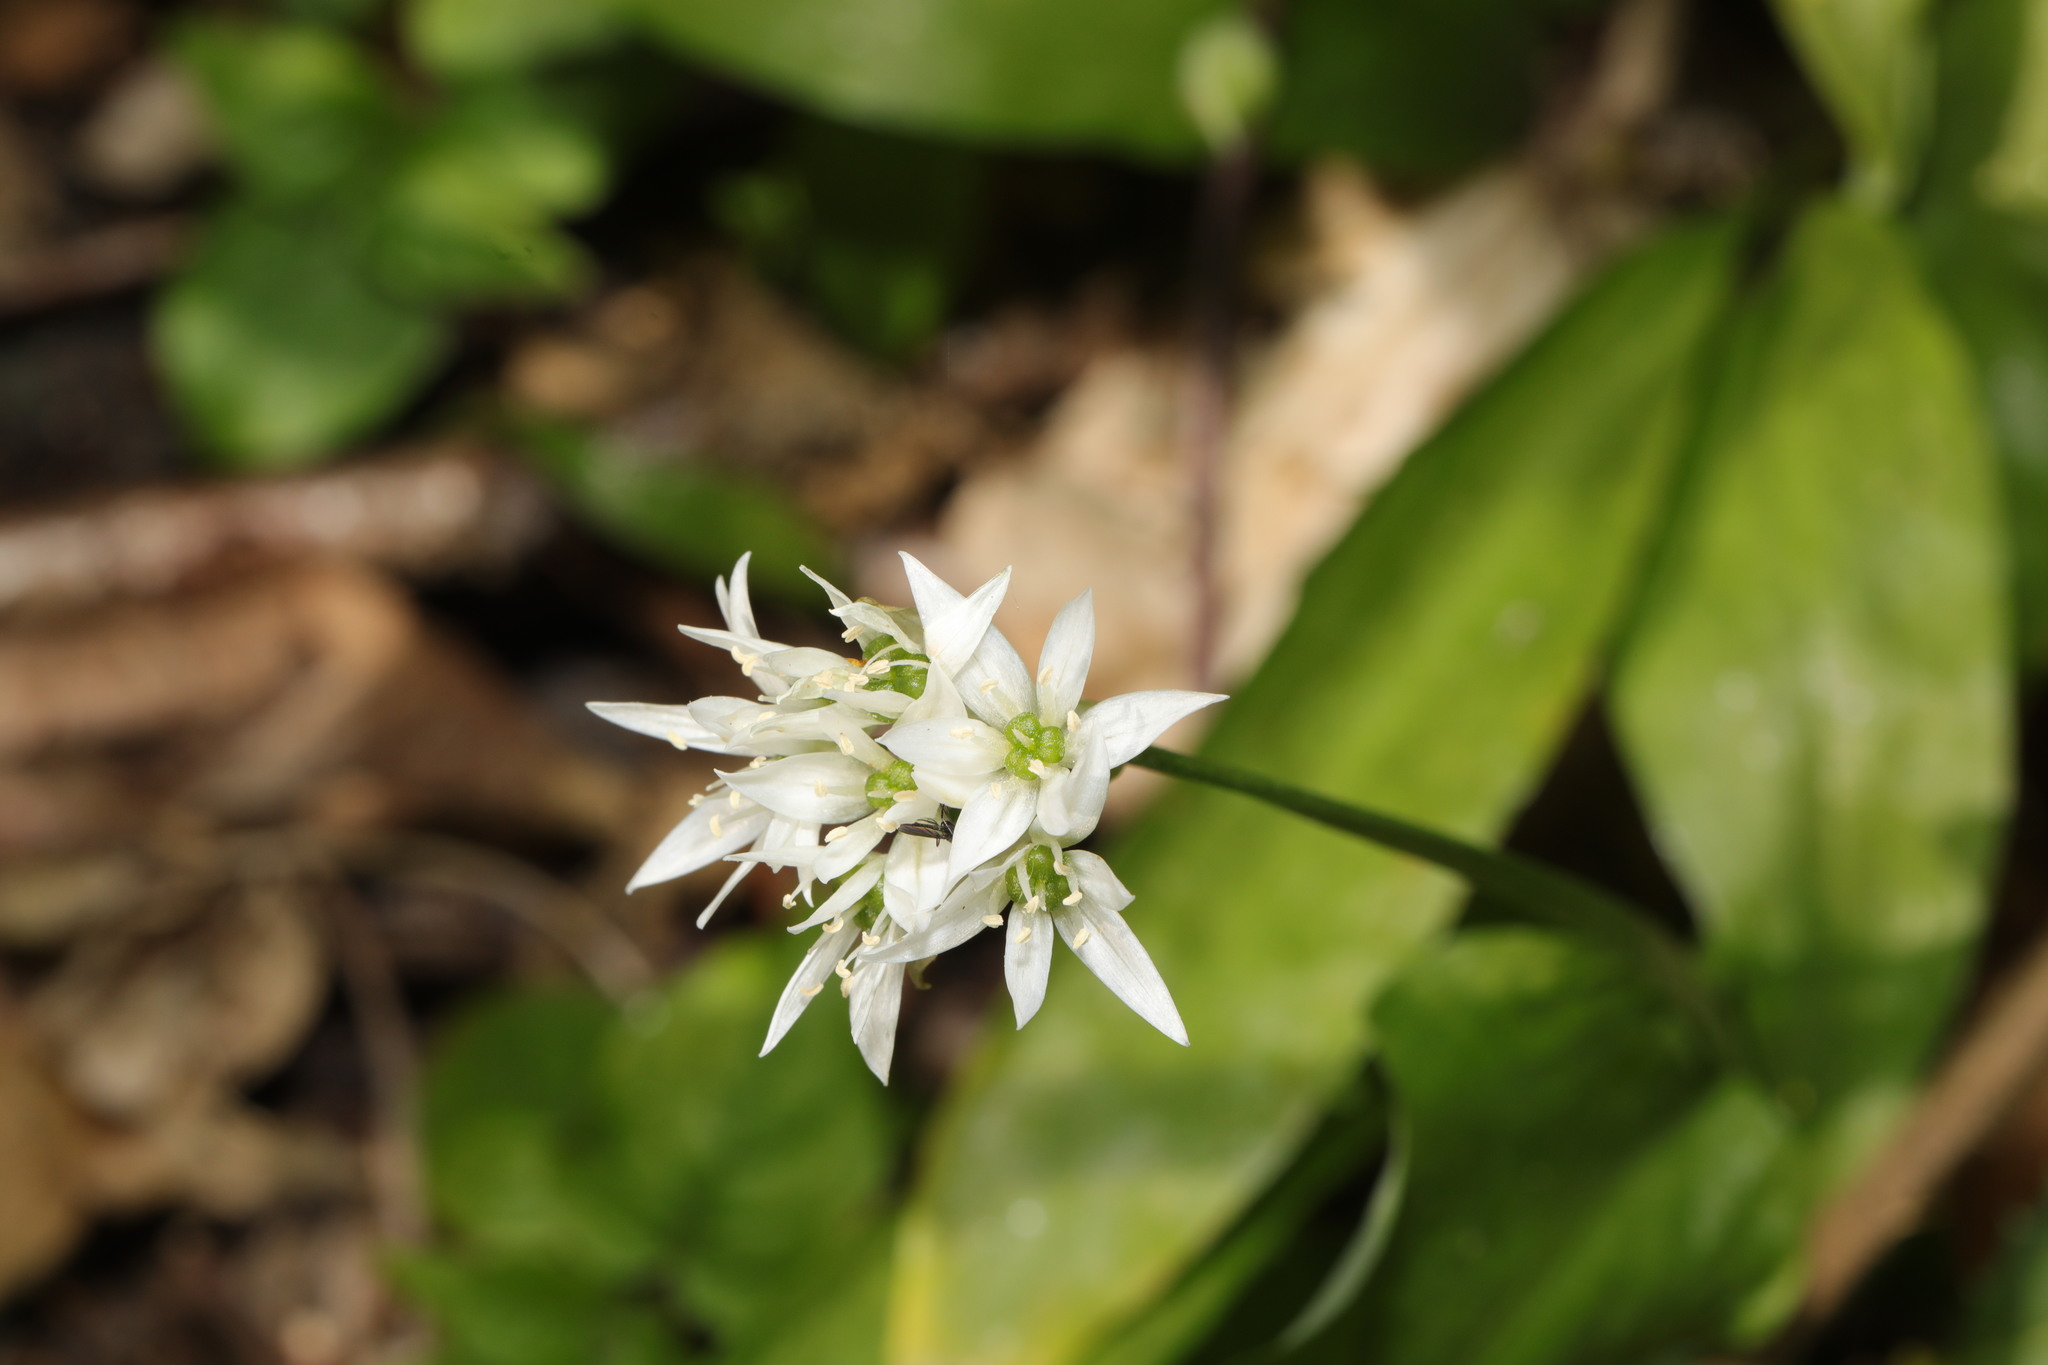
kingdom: Plantae
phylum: Tracheophyta
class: Liliopsida
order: Asparagales
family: Amaryllidaceae
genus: Allium
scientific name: Allium ursinum
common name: Ramsons
